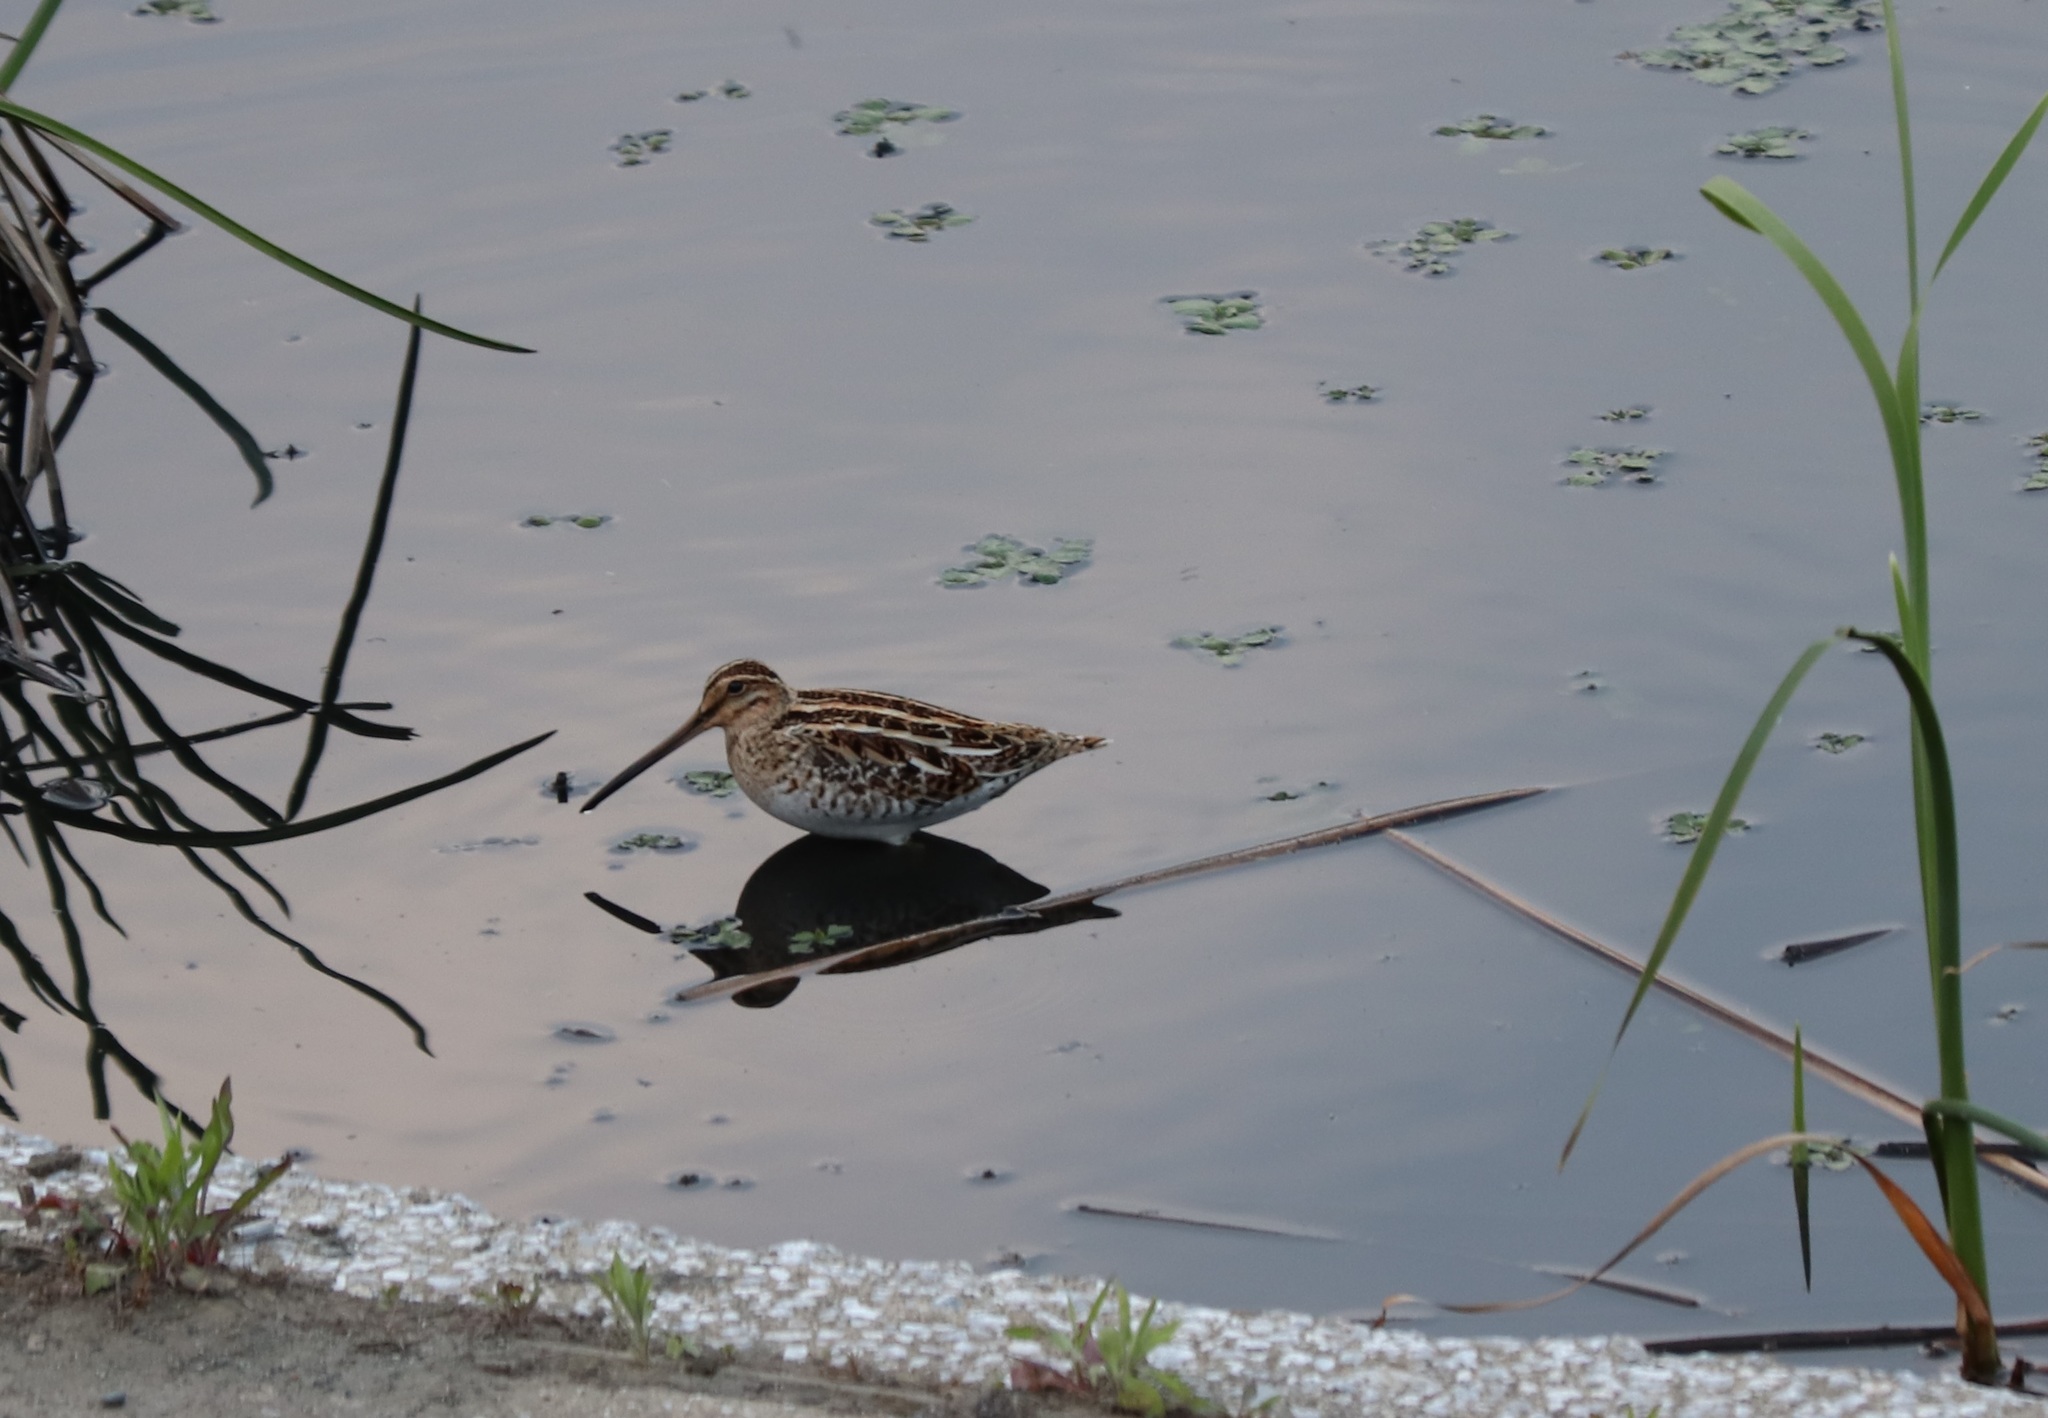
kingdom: Animalia
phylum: Chordata
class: Aves
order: Charadriiformes
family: Scolopacidae
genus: Gallinago
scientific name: Gallinago gallinago
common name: Common snipe
